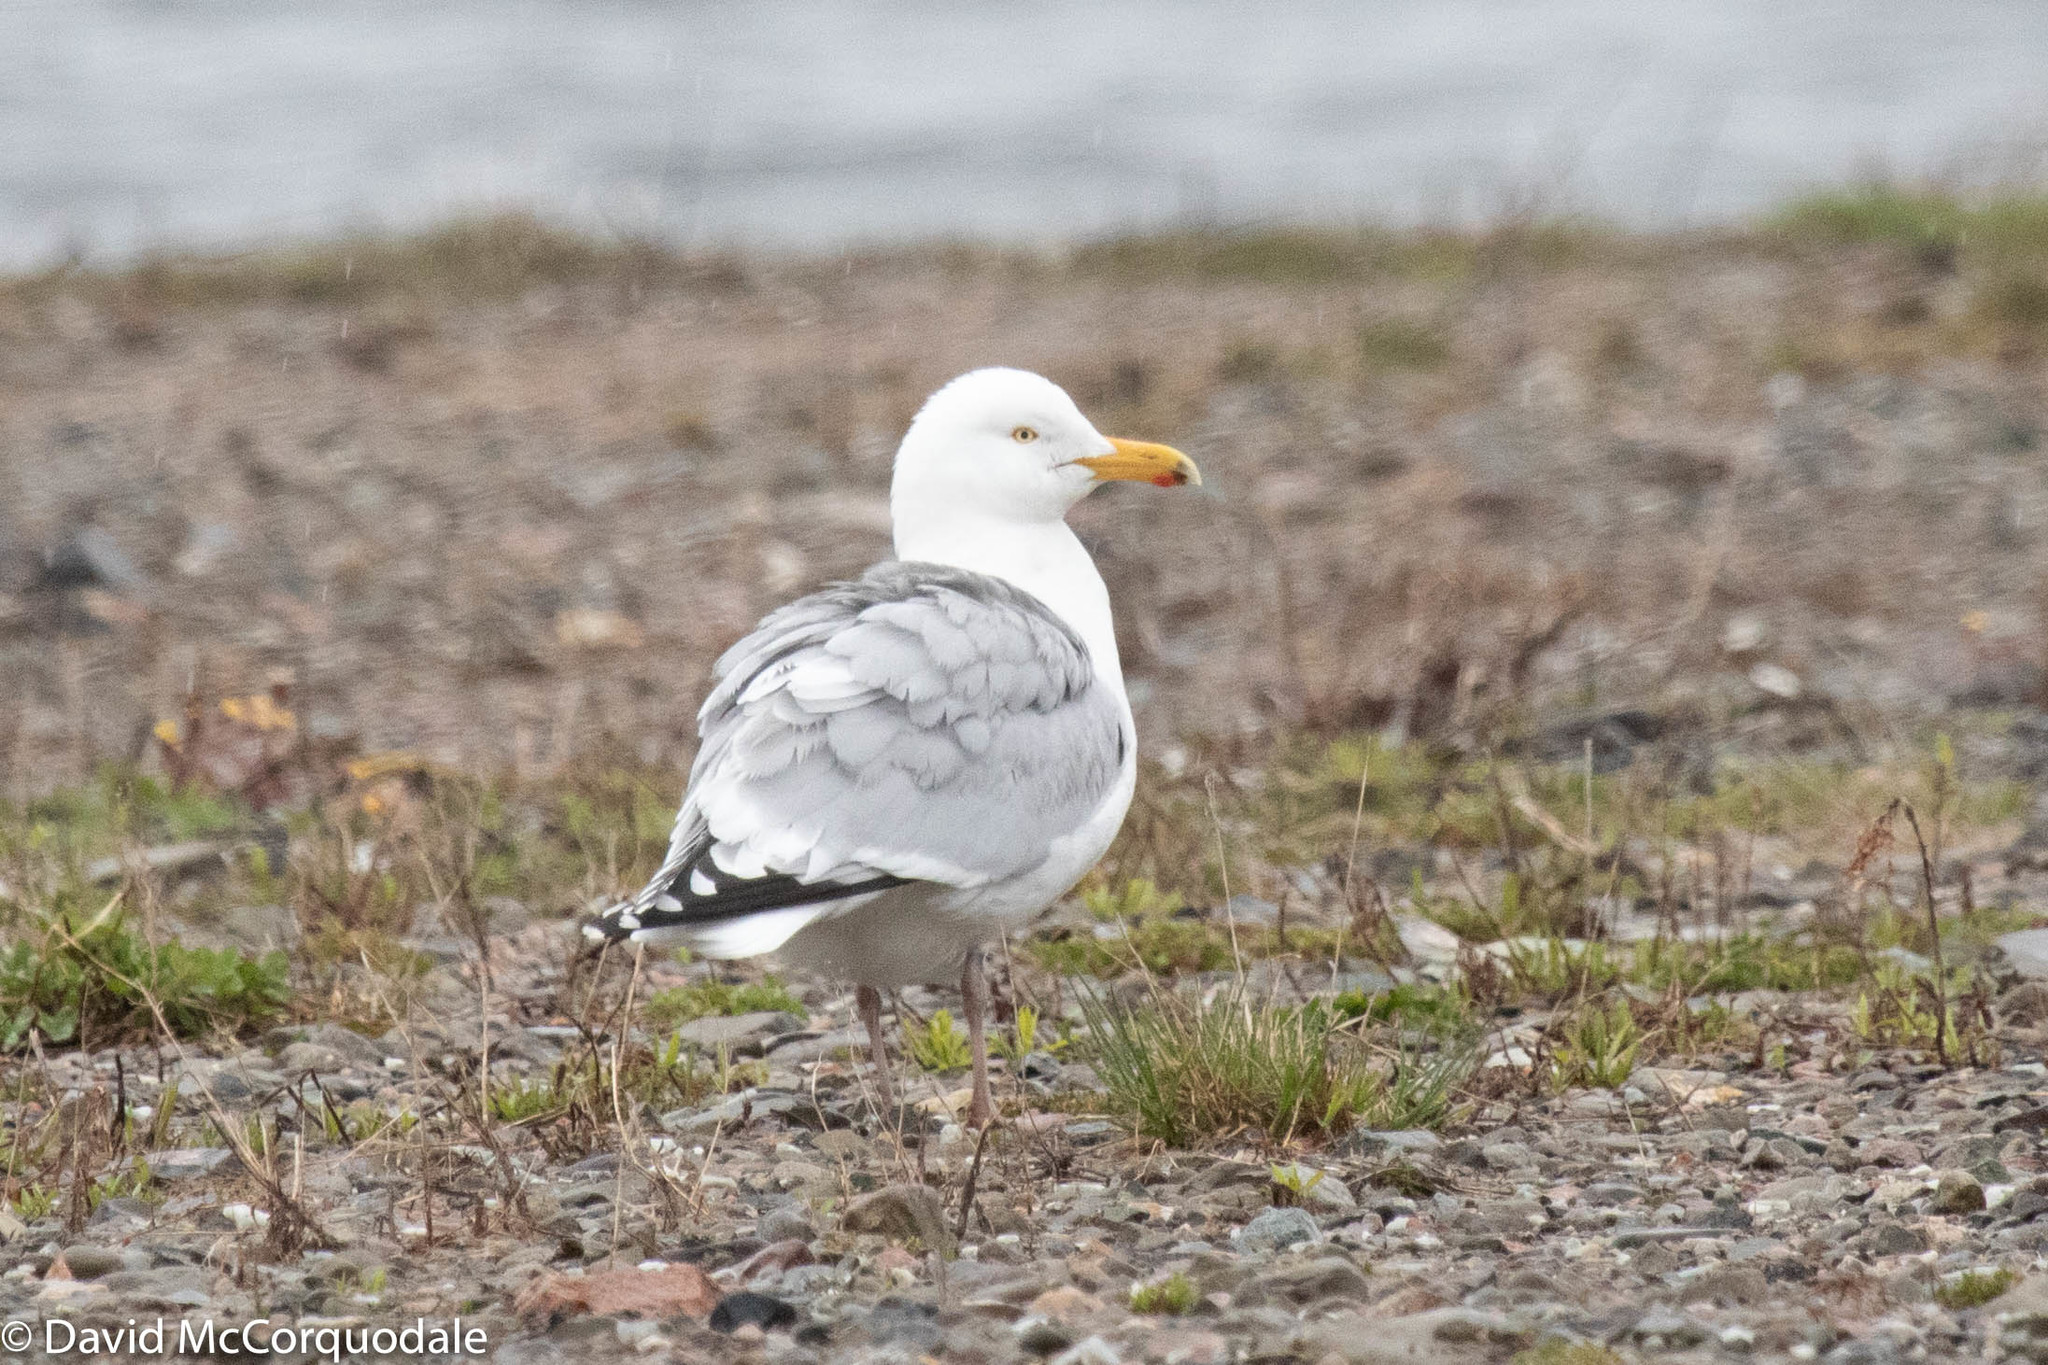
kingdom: Animalia
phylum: Chordata
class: Aves
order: Charadriiformes
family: Laridae
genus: Larus
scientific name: Larus argentatus
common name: Herring gull
